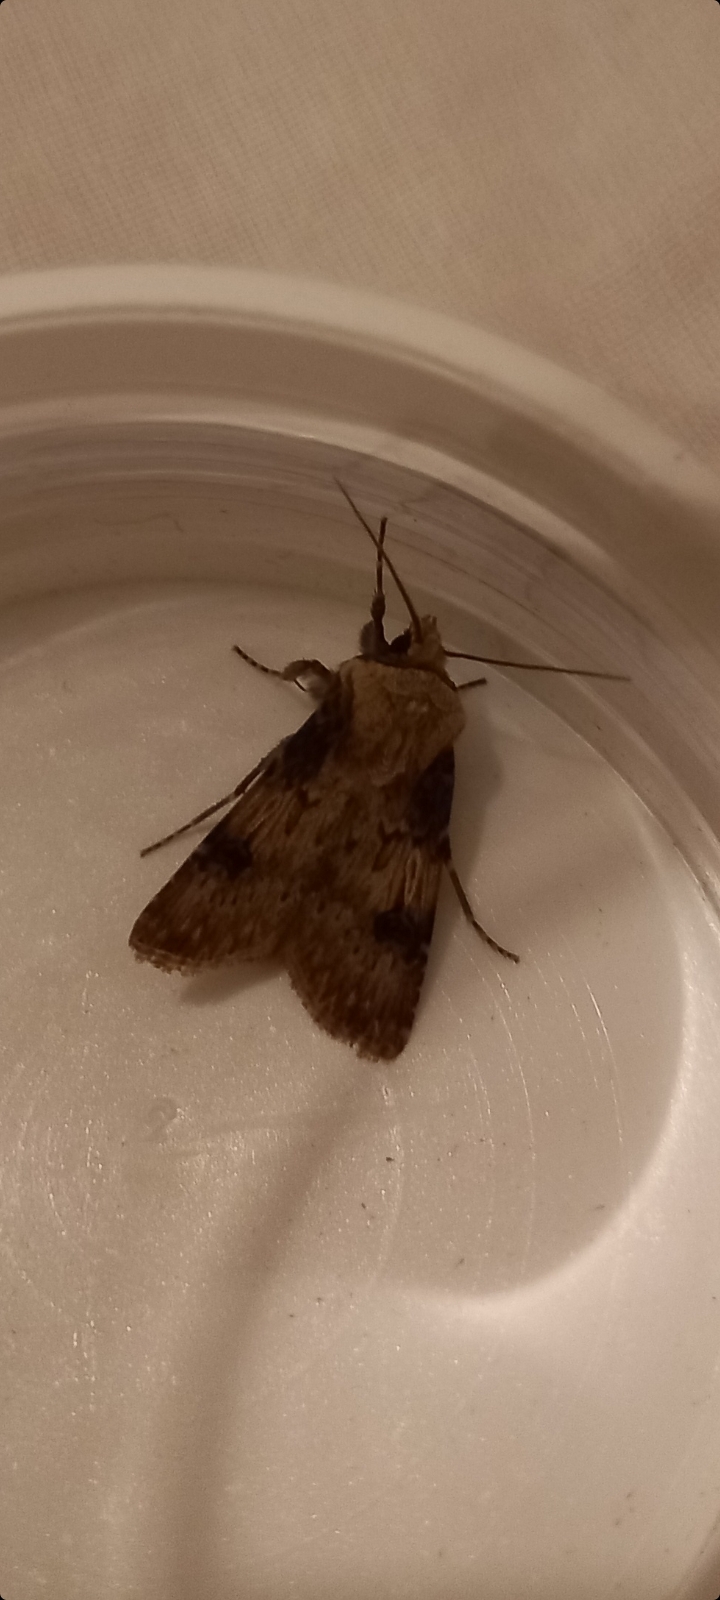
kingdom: Animalia
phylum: Arthropoda
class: Insecta
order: Lepidoptera
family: Noctuidae
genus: Agrotis
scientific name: Agrotis puta
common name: Shuttle-shaped dart
